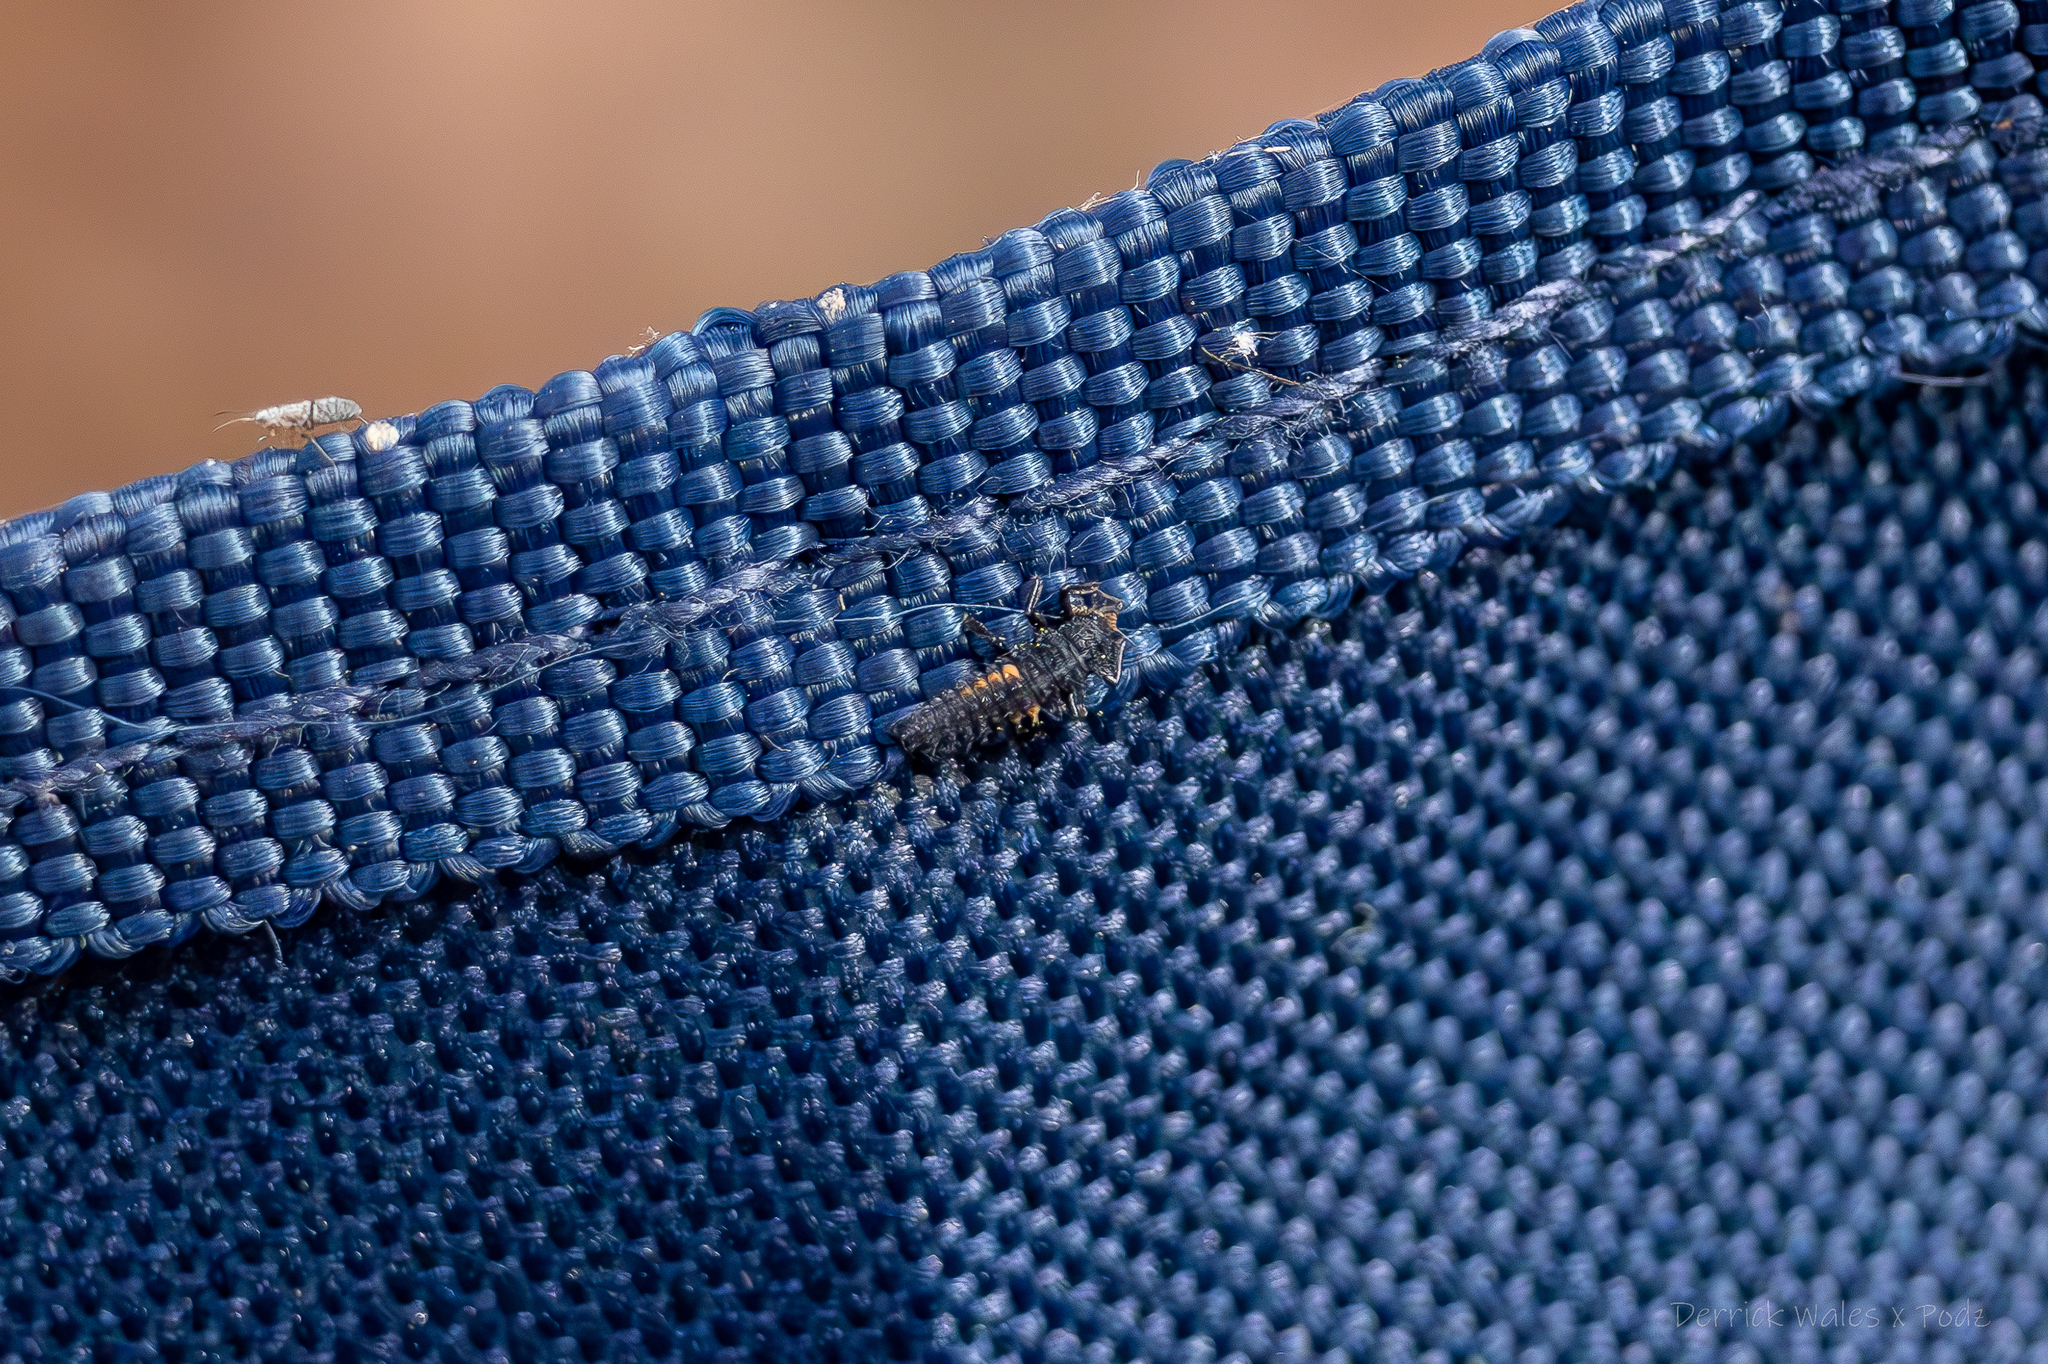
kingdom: Animalia
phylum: Arthropoda
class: Insecta
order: Coleoptera
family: Coccinellidae
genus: Harmonia
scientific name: Harmonia axyridis
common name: Harlequin ladybird
